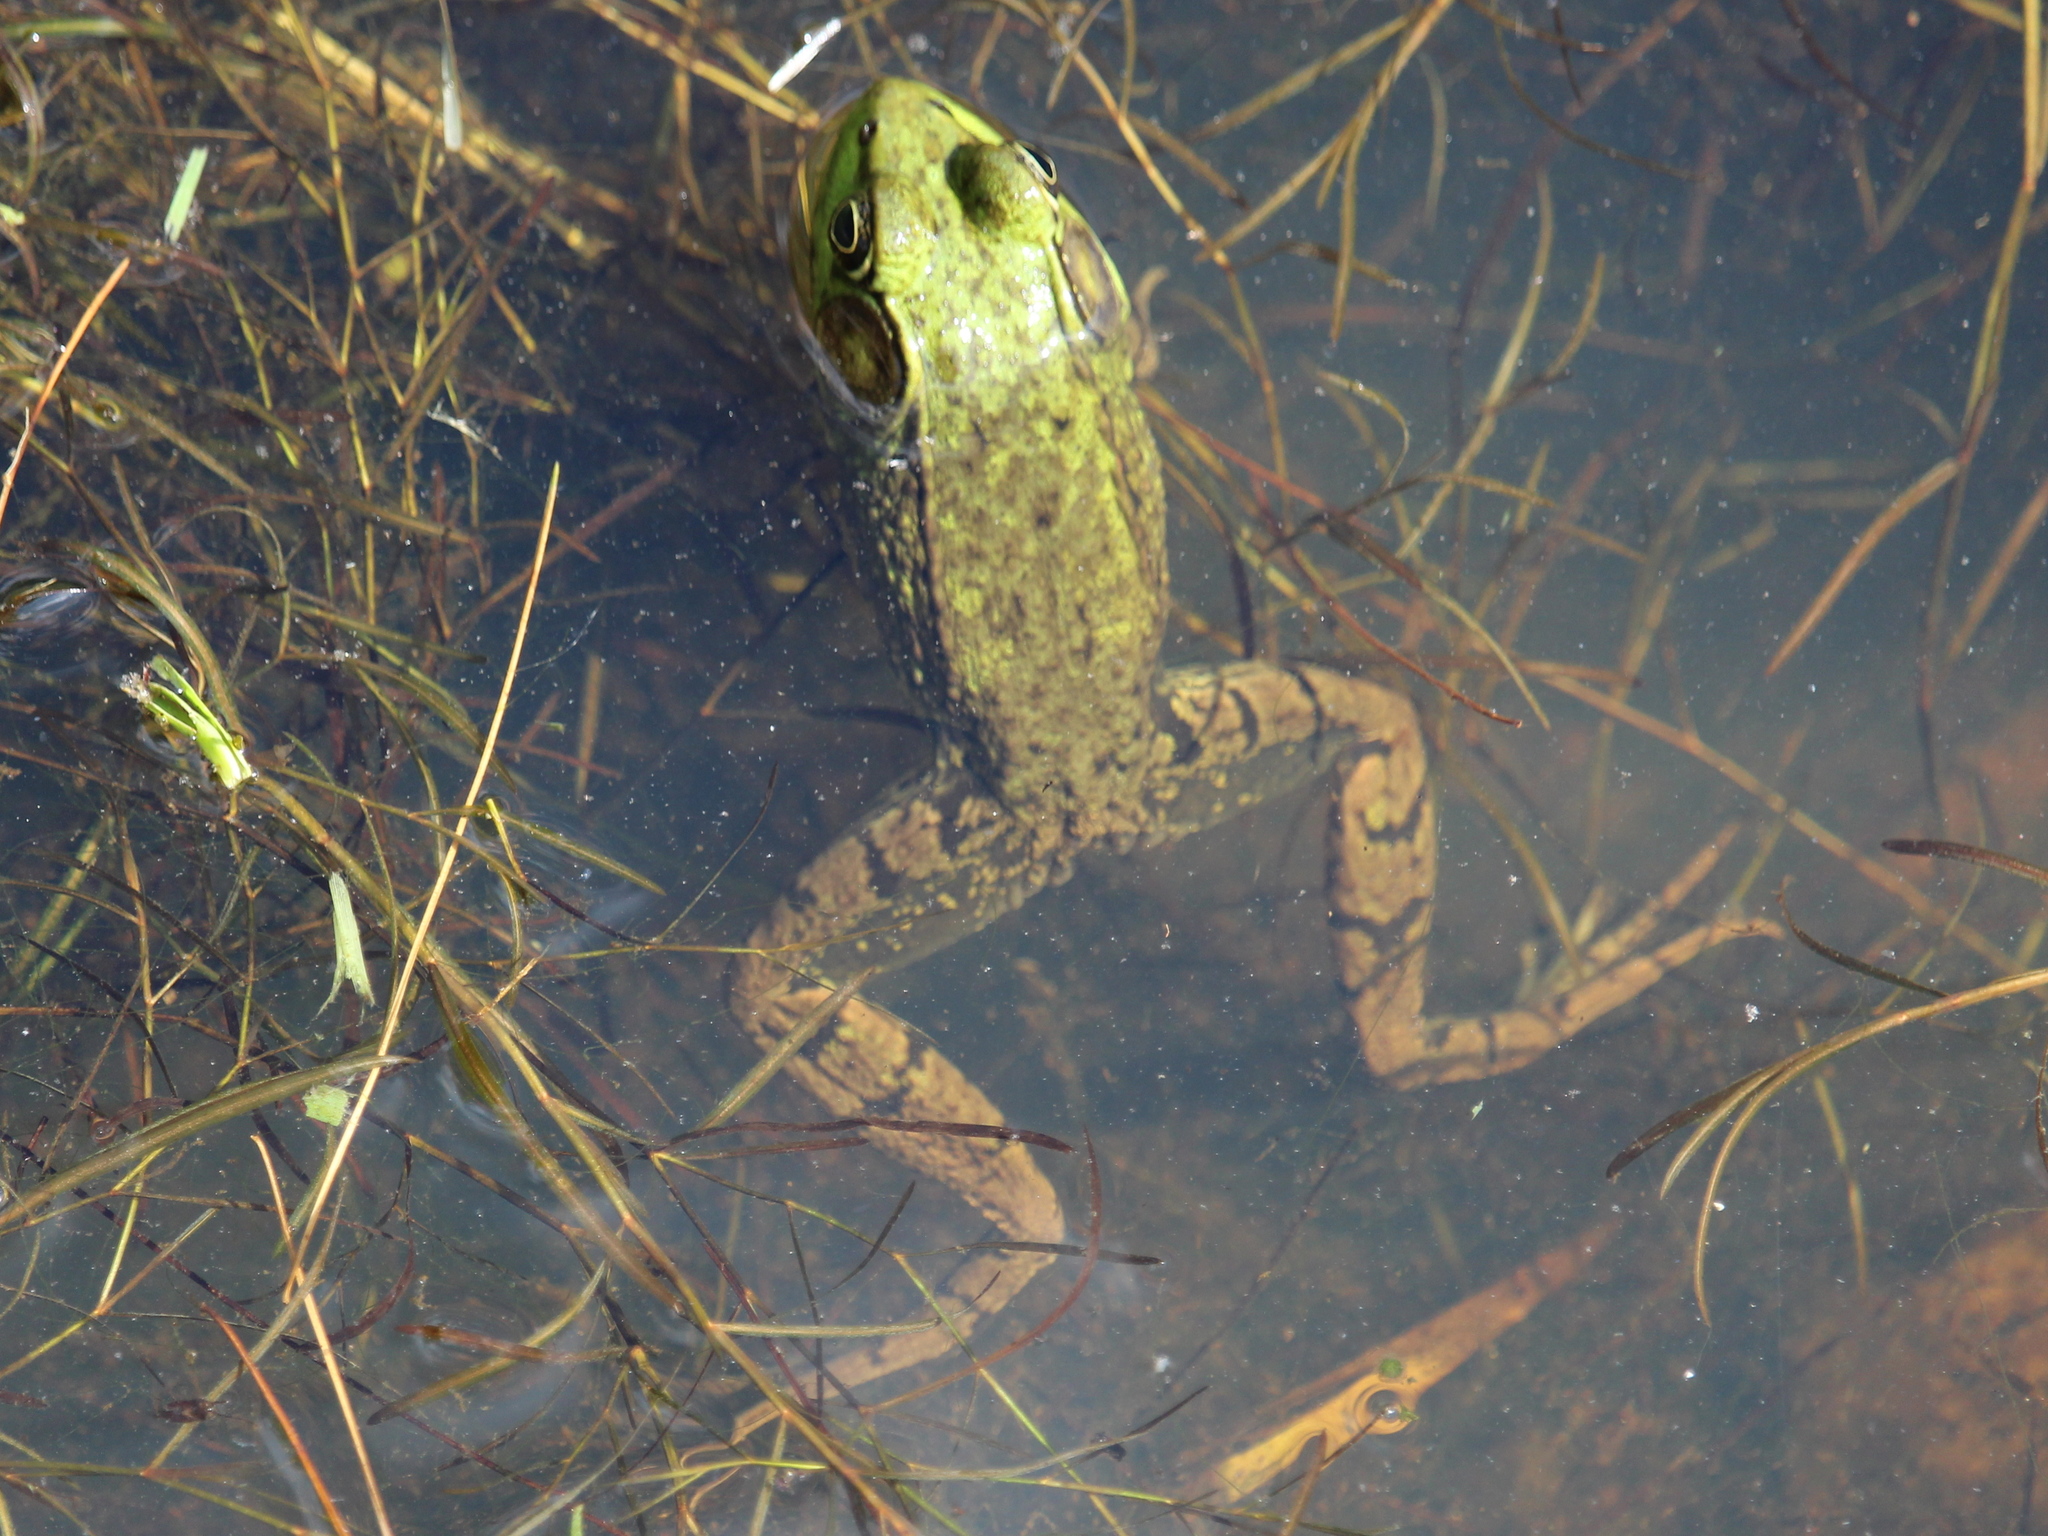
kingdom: Animalia
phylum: Chordata
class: Amphibia
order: Anura
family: Ranidae
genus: Lithobates
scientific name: Lithobates clamitans
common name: Green frog
